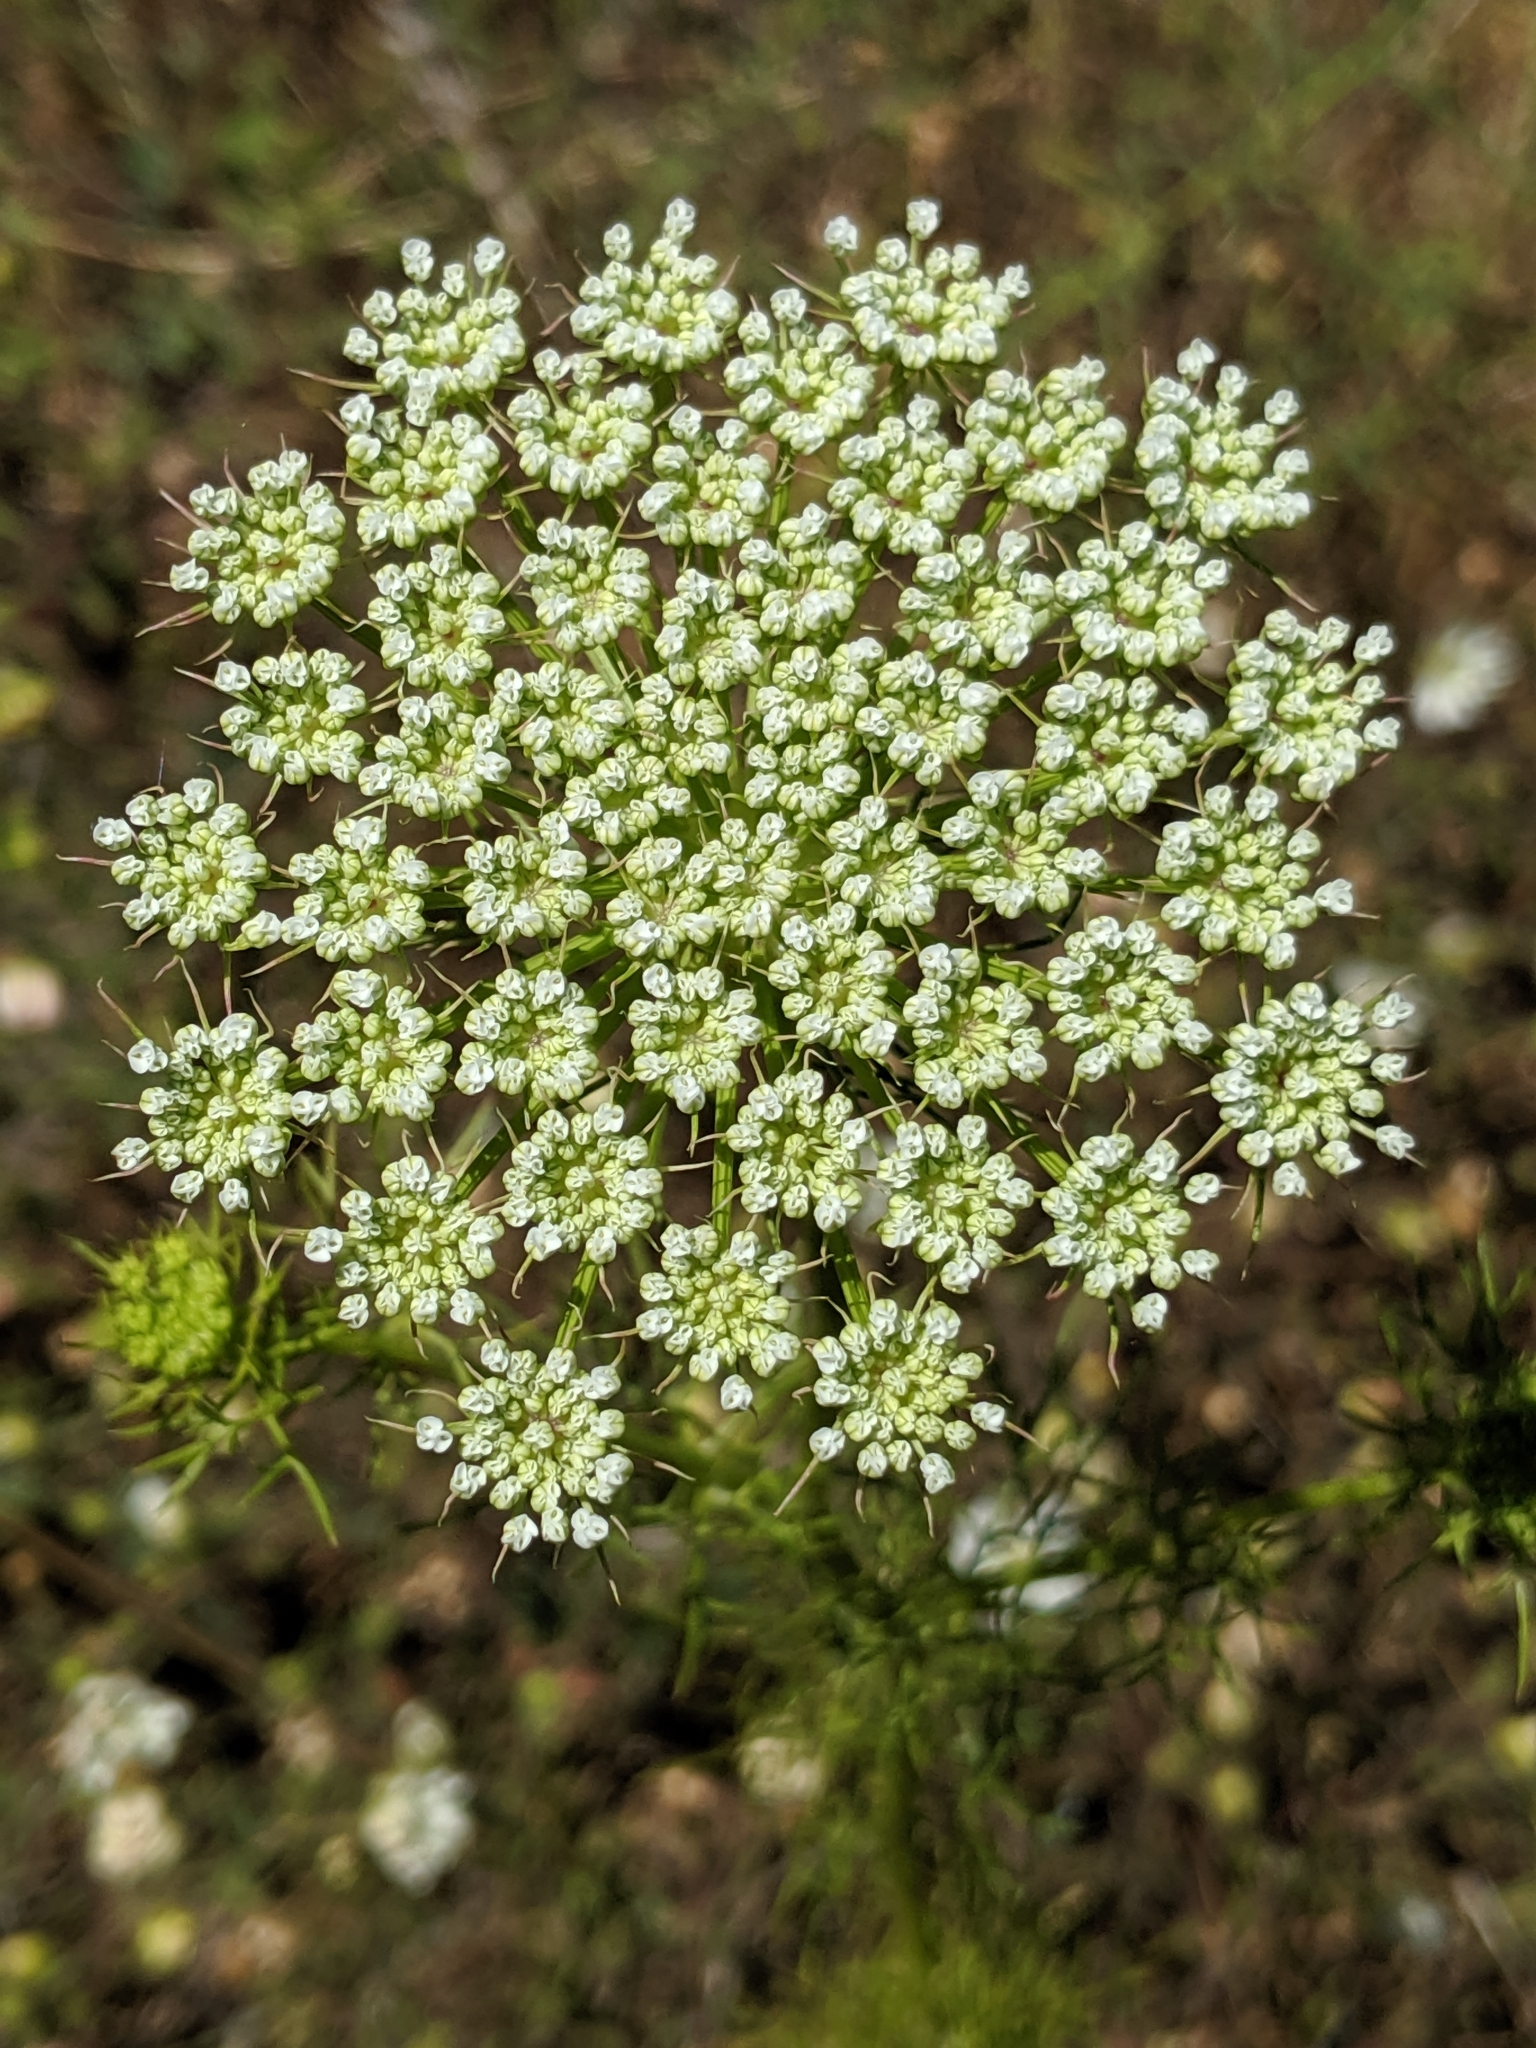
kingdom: Plantae
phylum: Tracheophyta
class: Magnoliopsida
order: Apiales
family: Apiaceae
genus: Visnaga
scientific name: Visnaga daucoides
